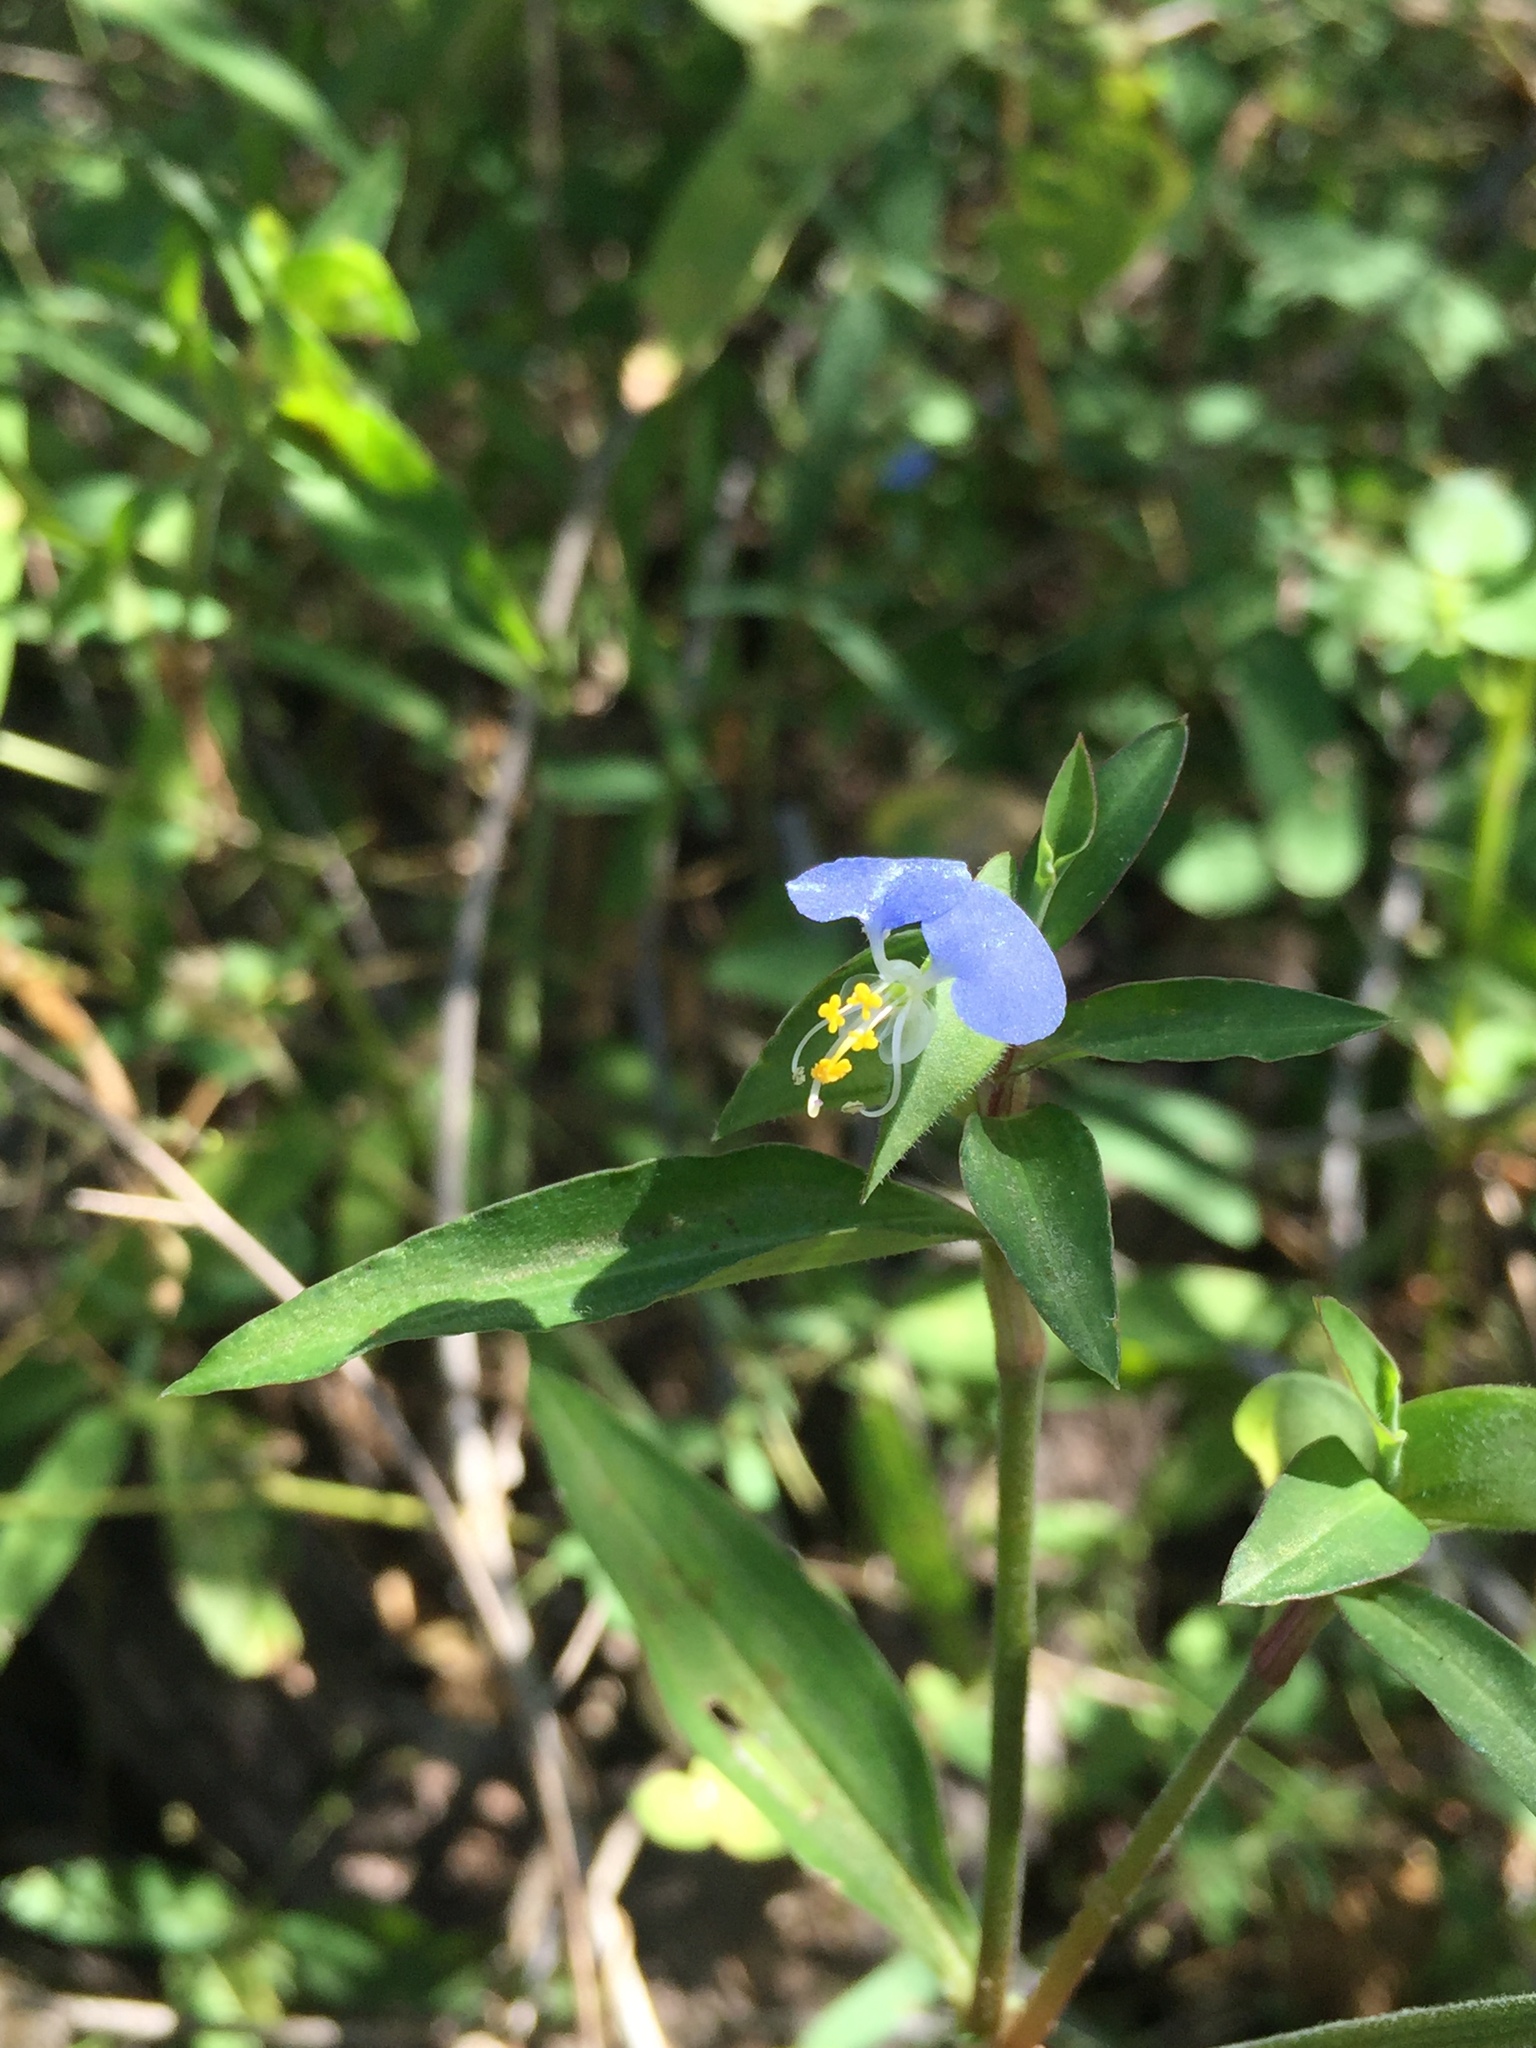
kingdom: Plantae
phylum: Tracheophyta
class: Liliopsida
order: Commelinales
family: Commelinaceae
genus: Commelina
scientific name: Commelina erecta
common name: Blousel blommetjie
